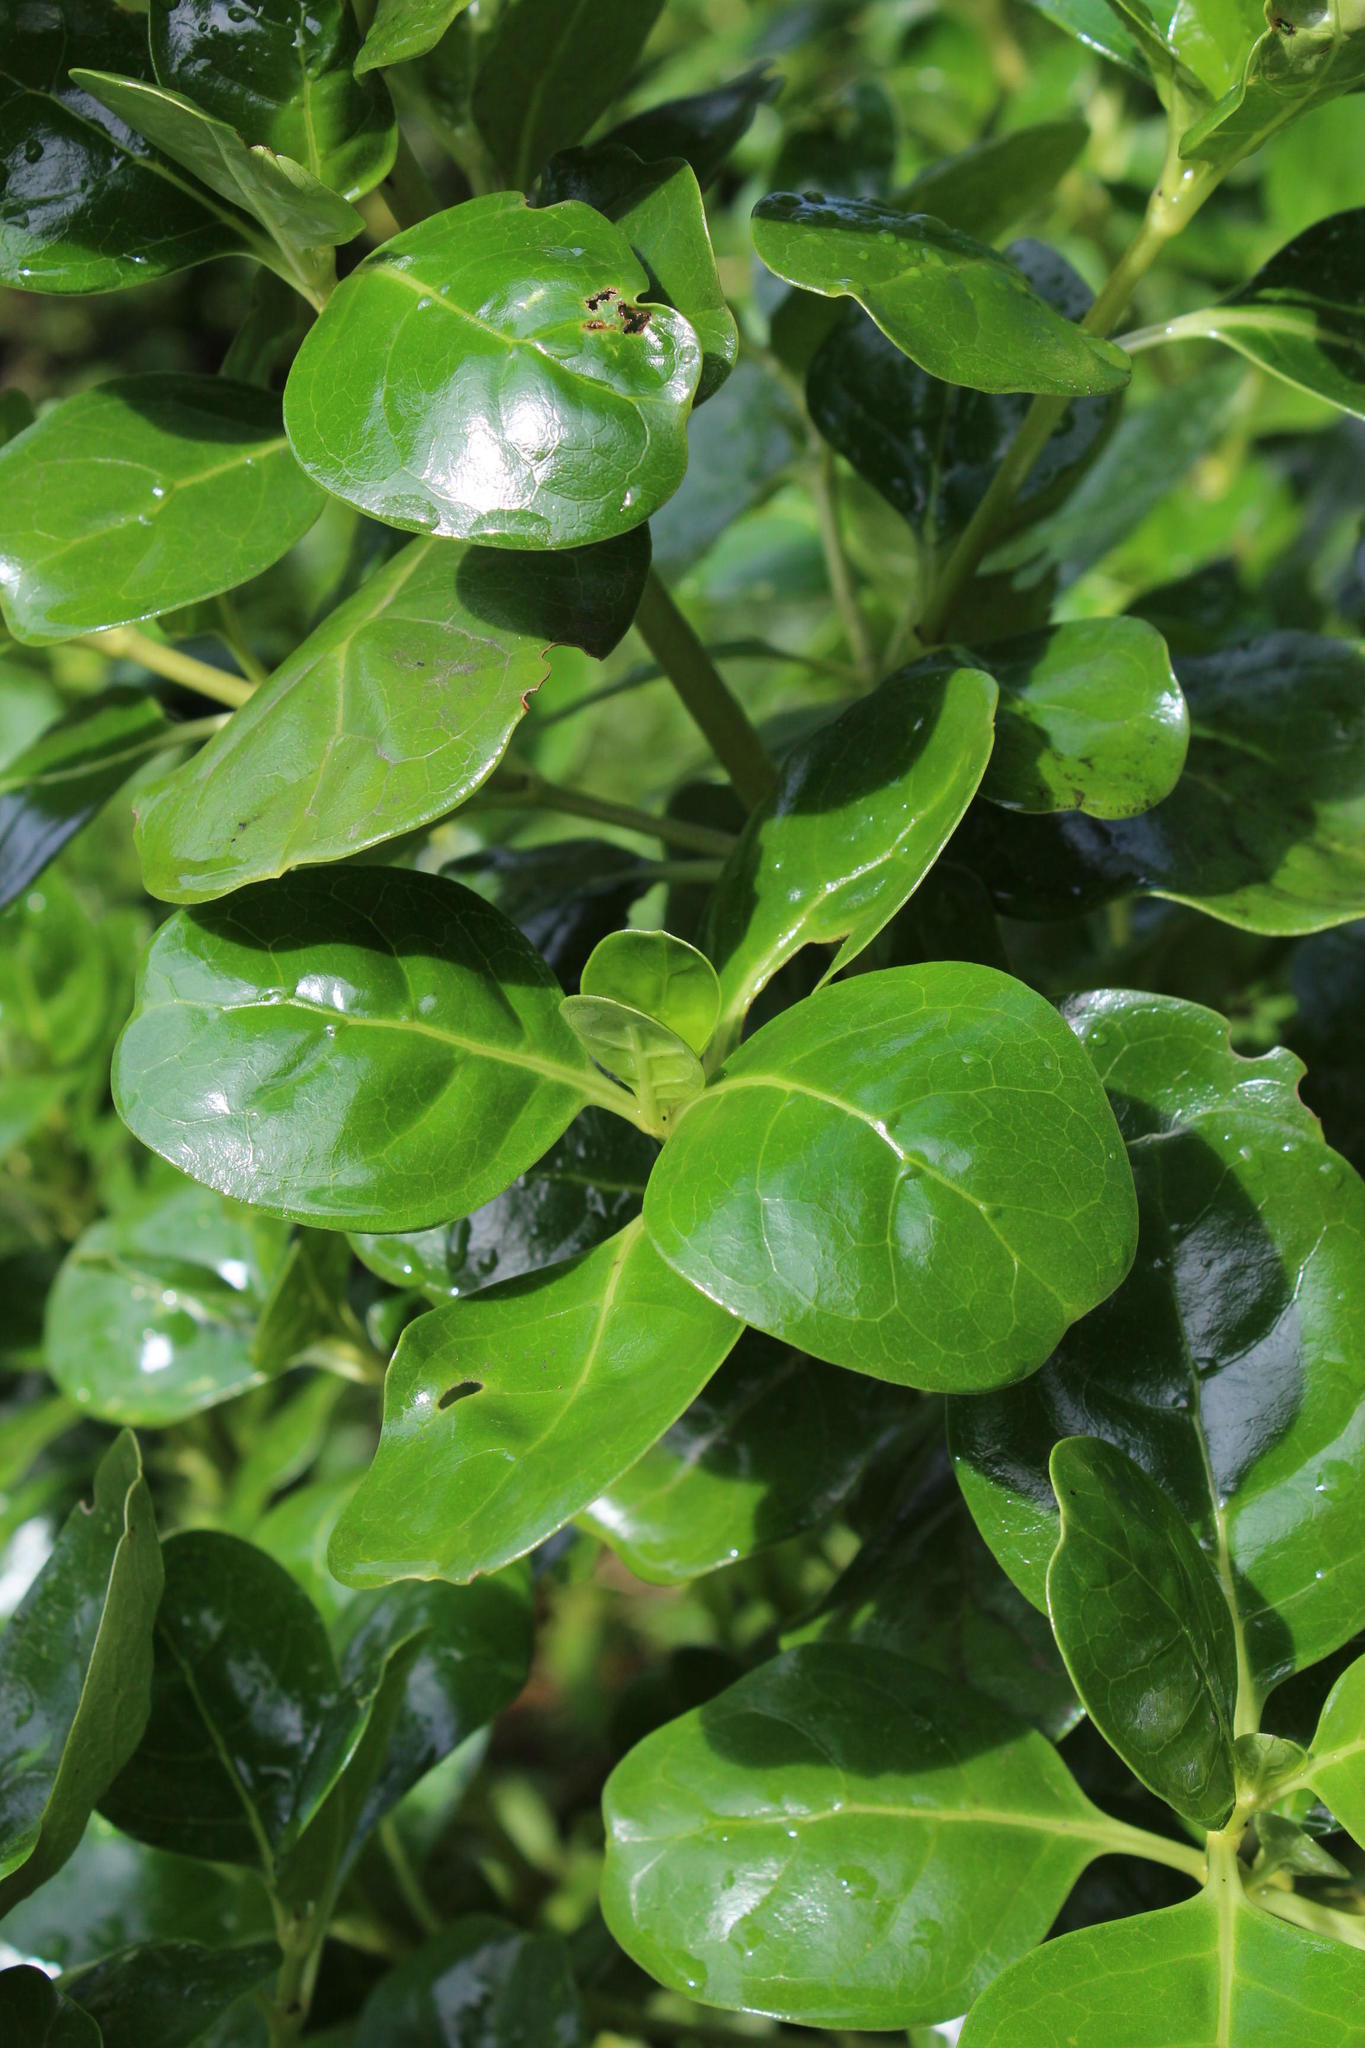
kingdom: Plantae
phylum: Tracheophyta
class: Magnoliopsida
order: Gentianales
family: Rubiaceae
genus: Coprosma
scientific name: Coprosma repens
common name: Tree bedstraw
